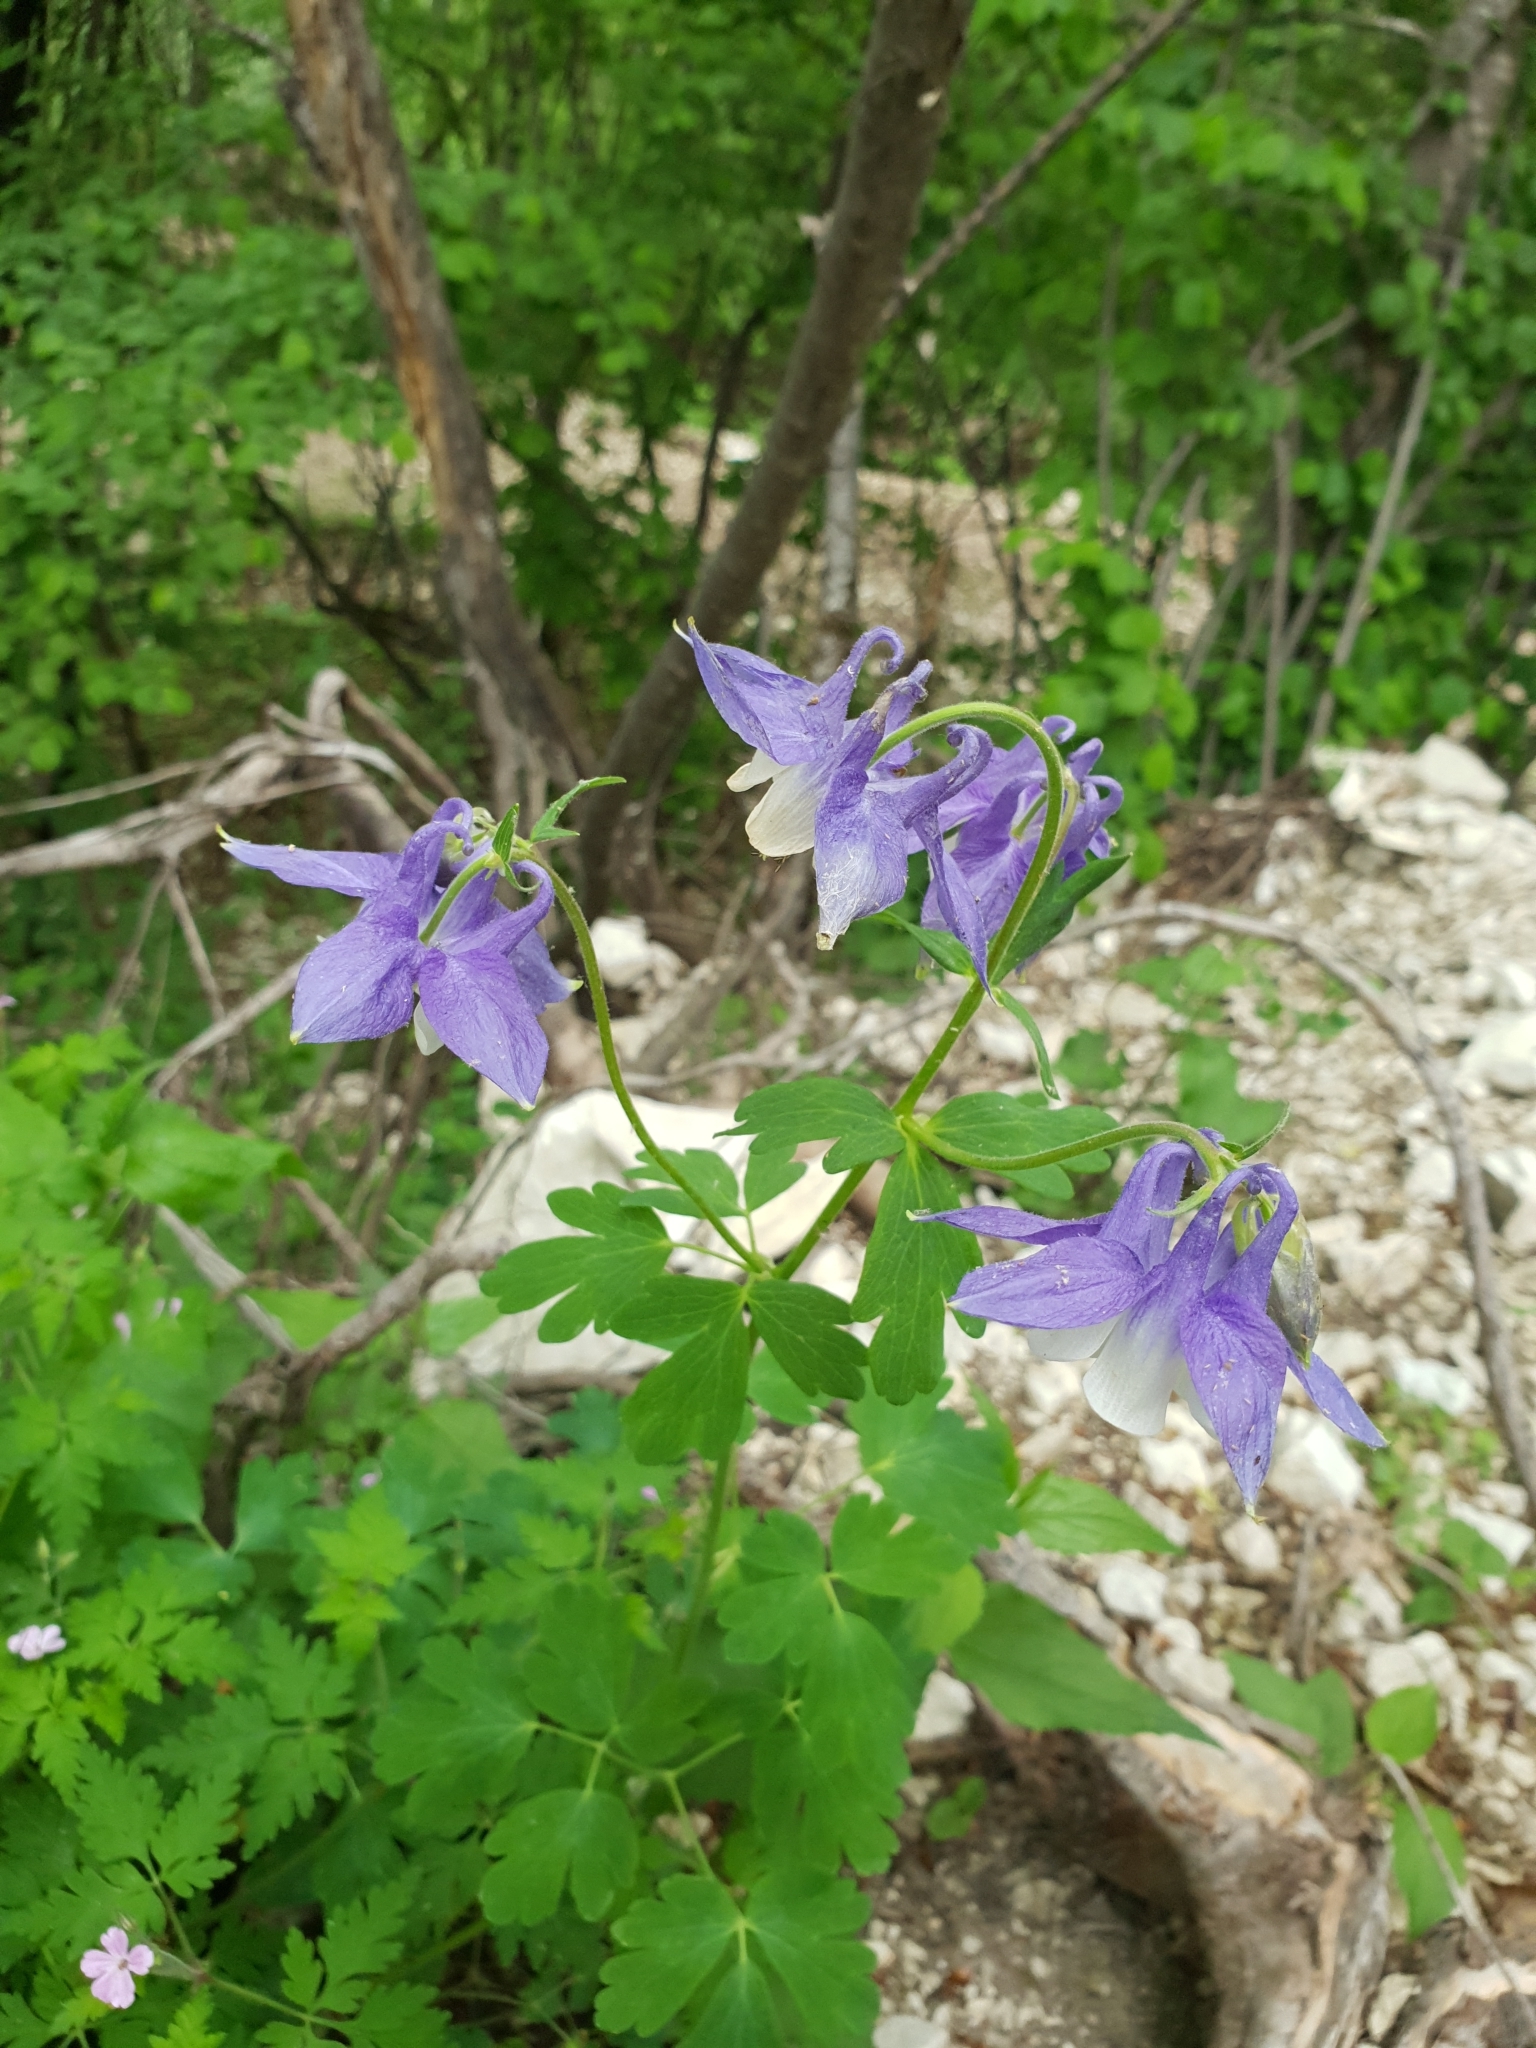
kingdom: Plantae
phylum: Tracheophyta
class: Magnoliopsida
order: Ranunculales
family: Ranunculaceae
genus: Aquilegia
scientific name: Aquilegia olympica
